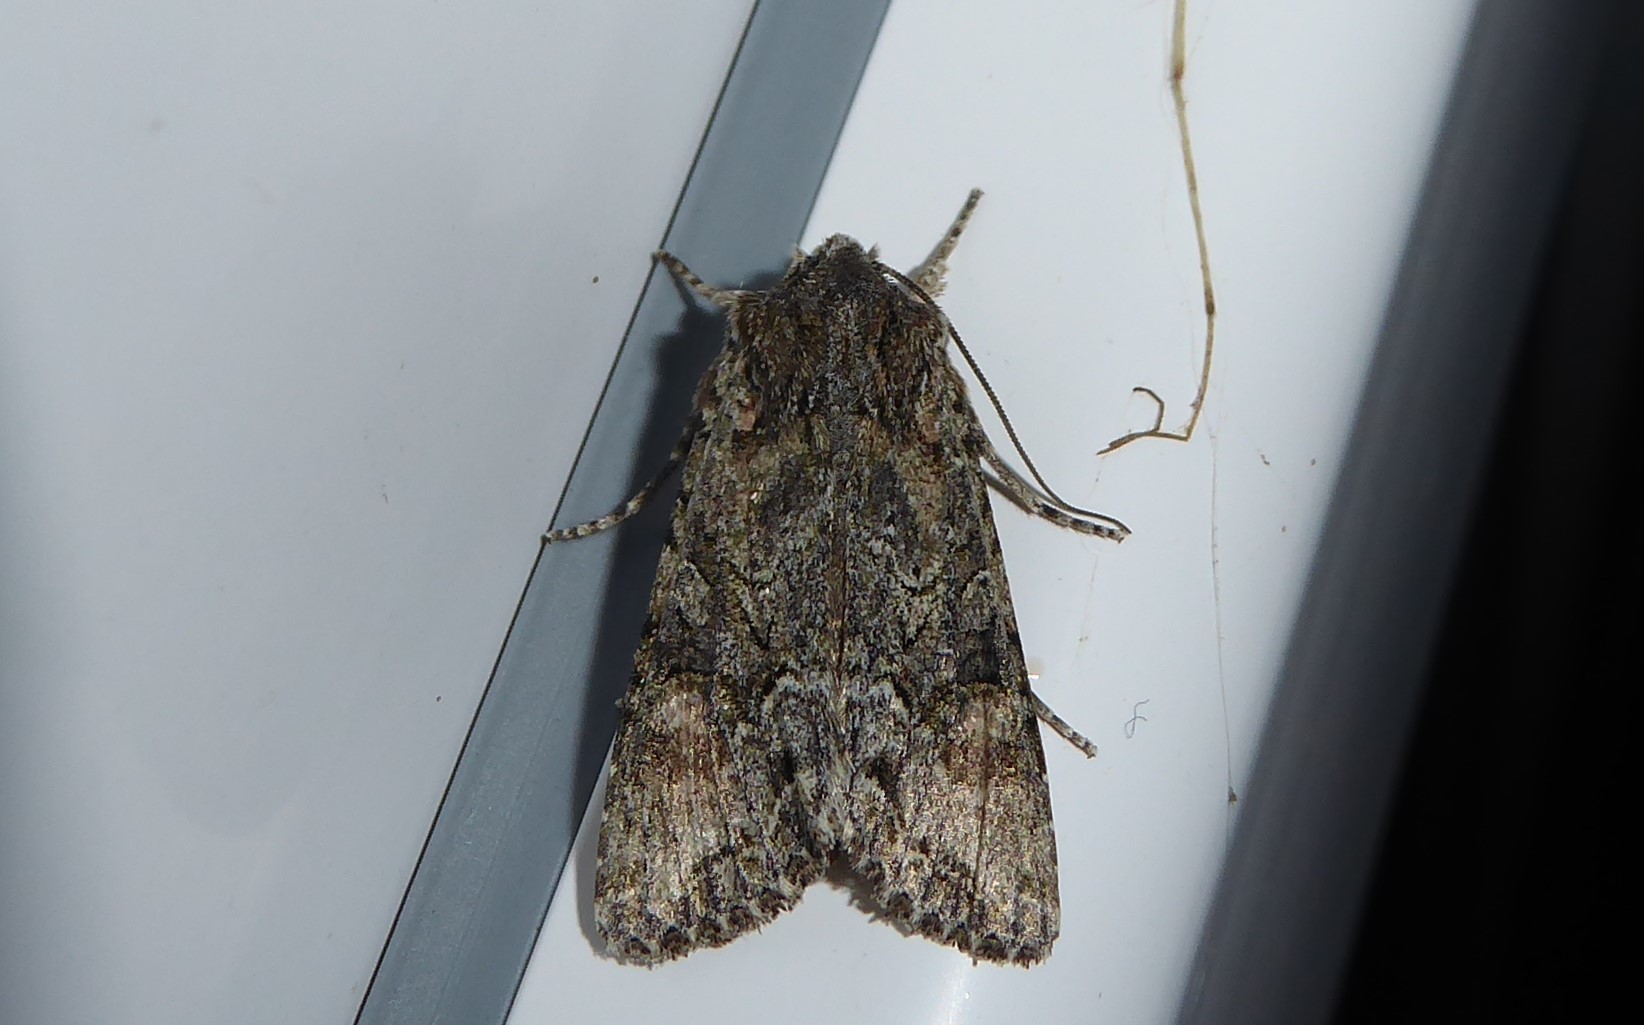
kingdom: Animalia
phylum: Arthropoda
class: Insecta
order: Lepidoptera
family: Noctuidae
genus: Ichneutica
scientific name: Ichneutica mutans
